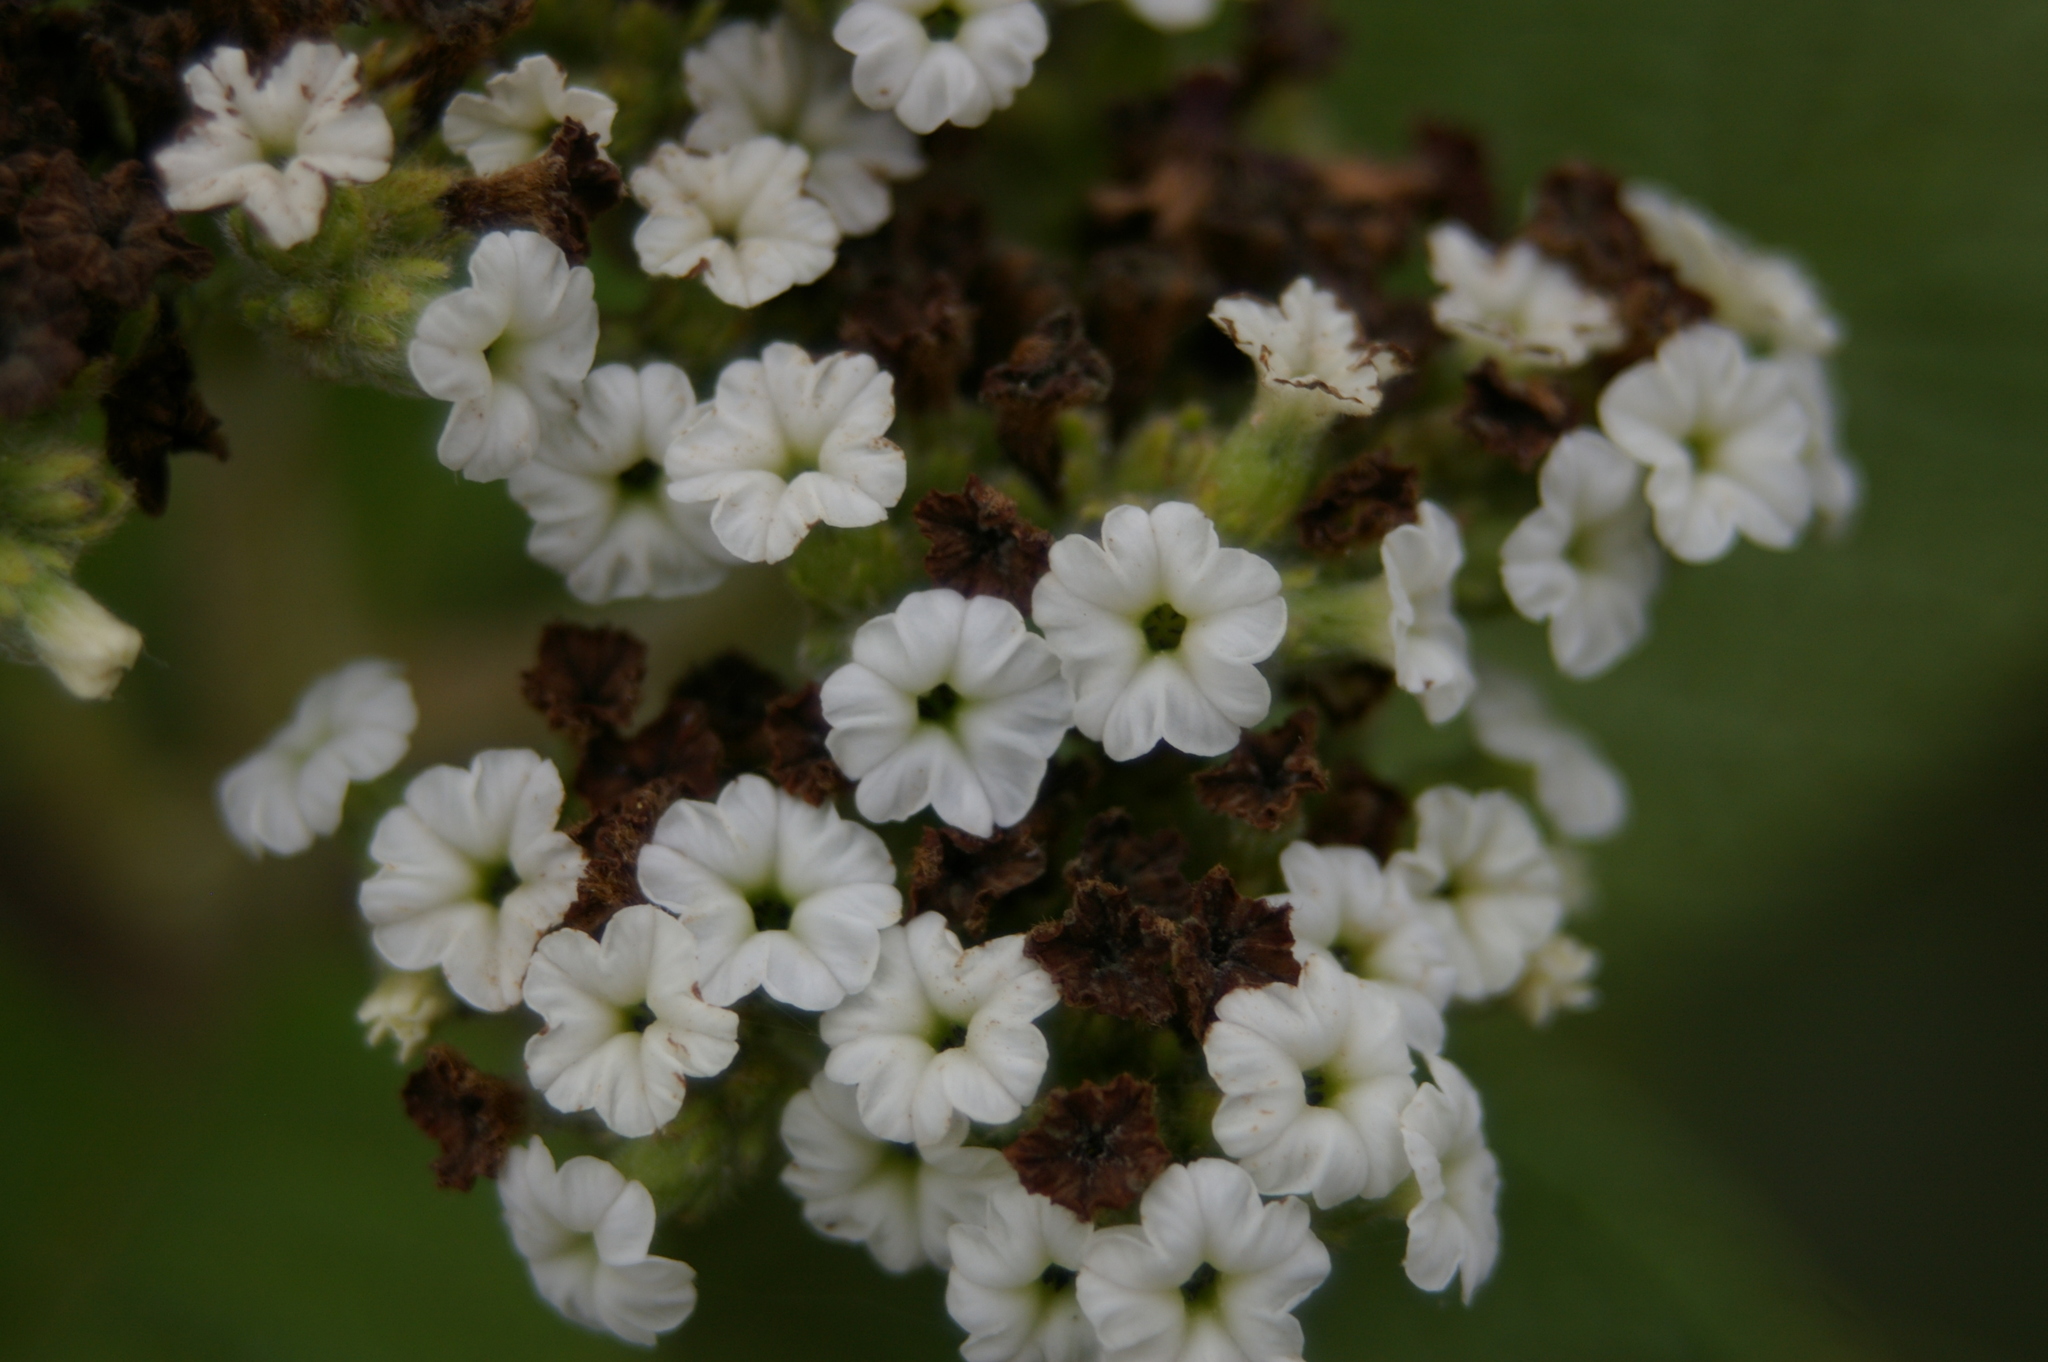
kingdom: Plantae
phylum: Tracheophyta
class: Magnoliopsida
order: Boraginales
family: Heliotropiaceae
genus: Tournefortia
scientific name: Tournefortia rufosericea
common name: Rufous-haired tournefortia
